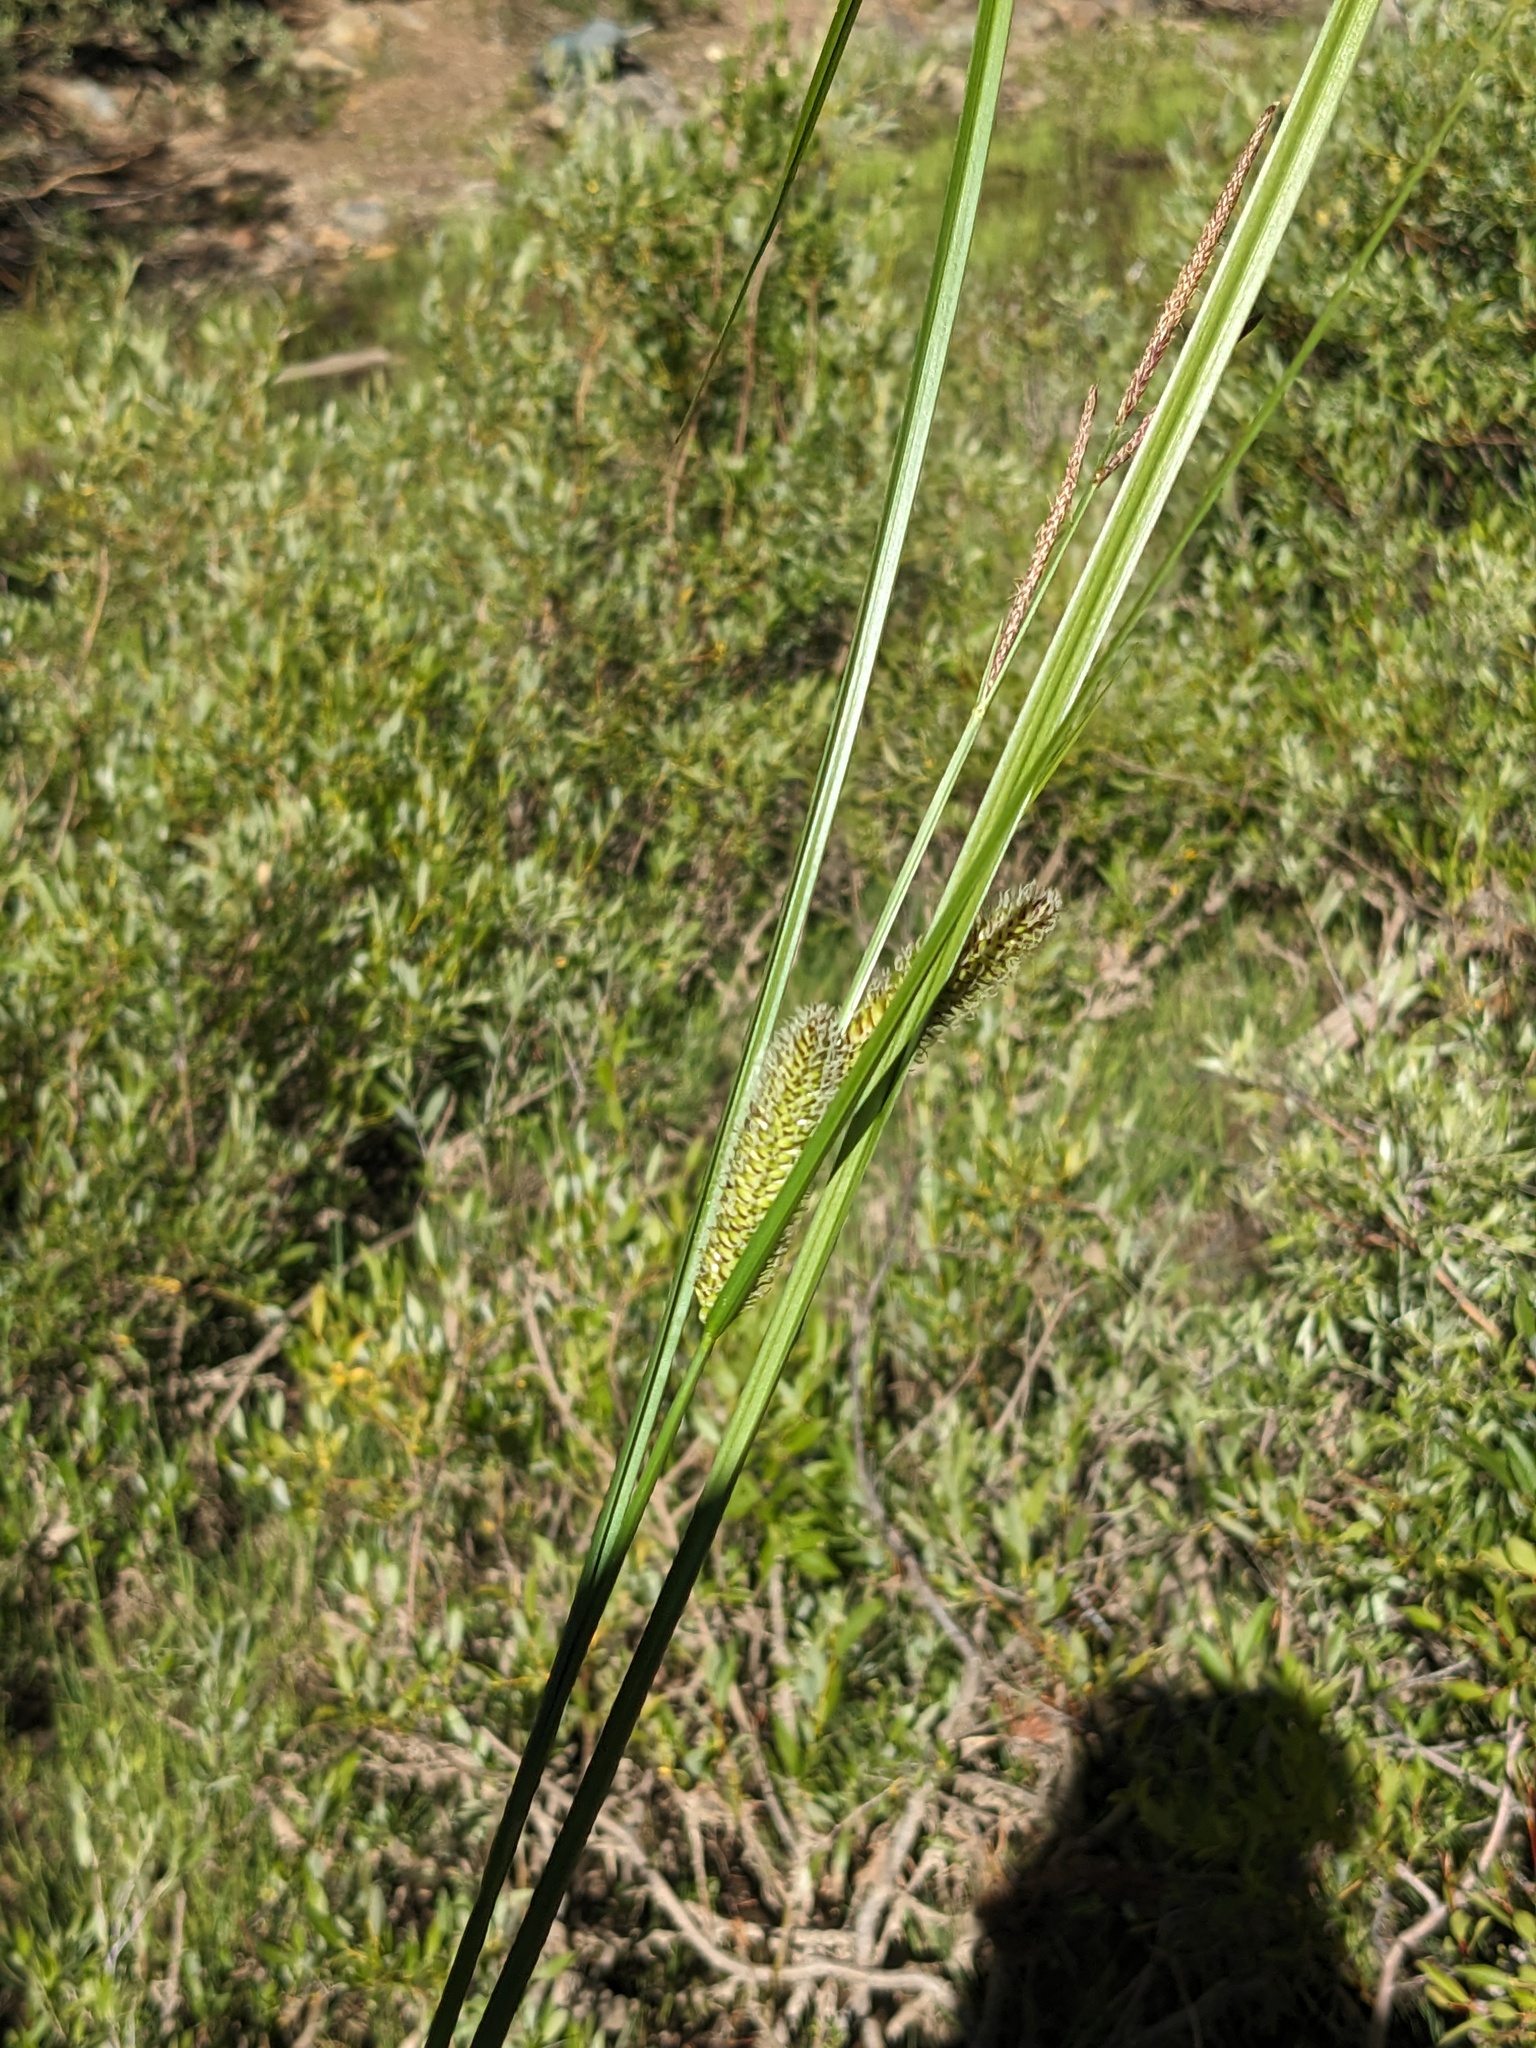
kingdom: Plantae
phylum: Tracheophyta
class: Liliopsida
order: Poales
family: Cyperaceae
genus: Carex
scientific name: Carex utriculata
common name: Beaked sedge
